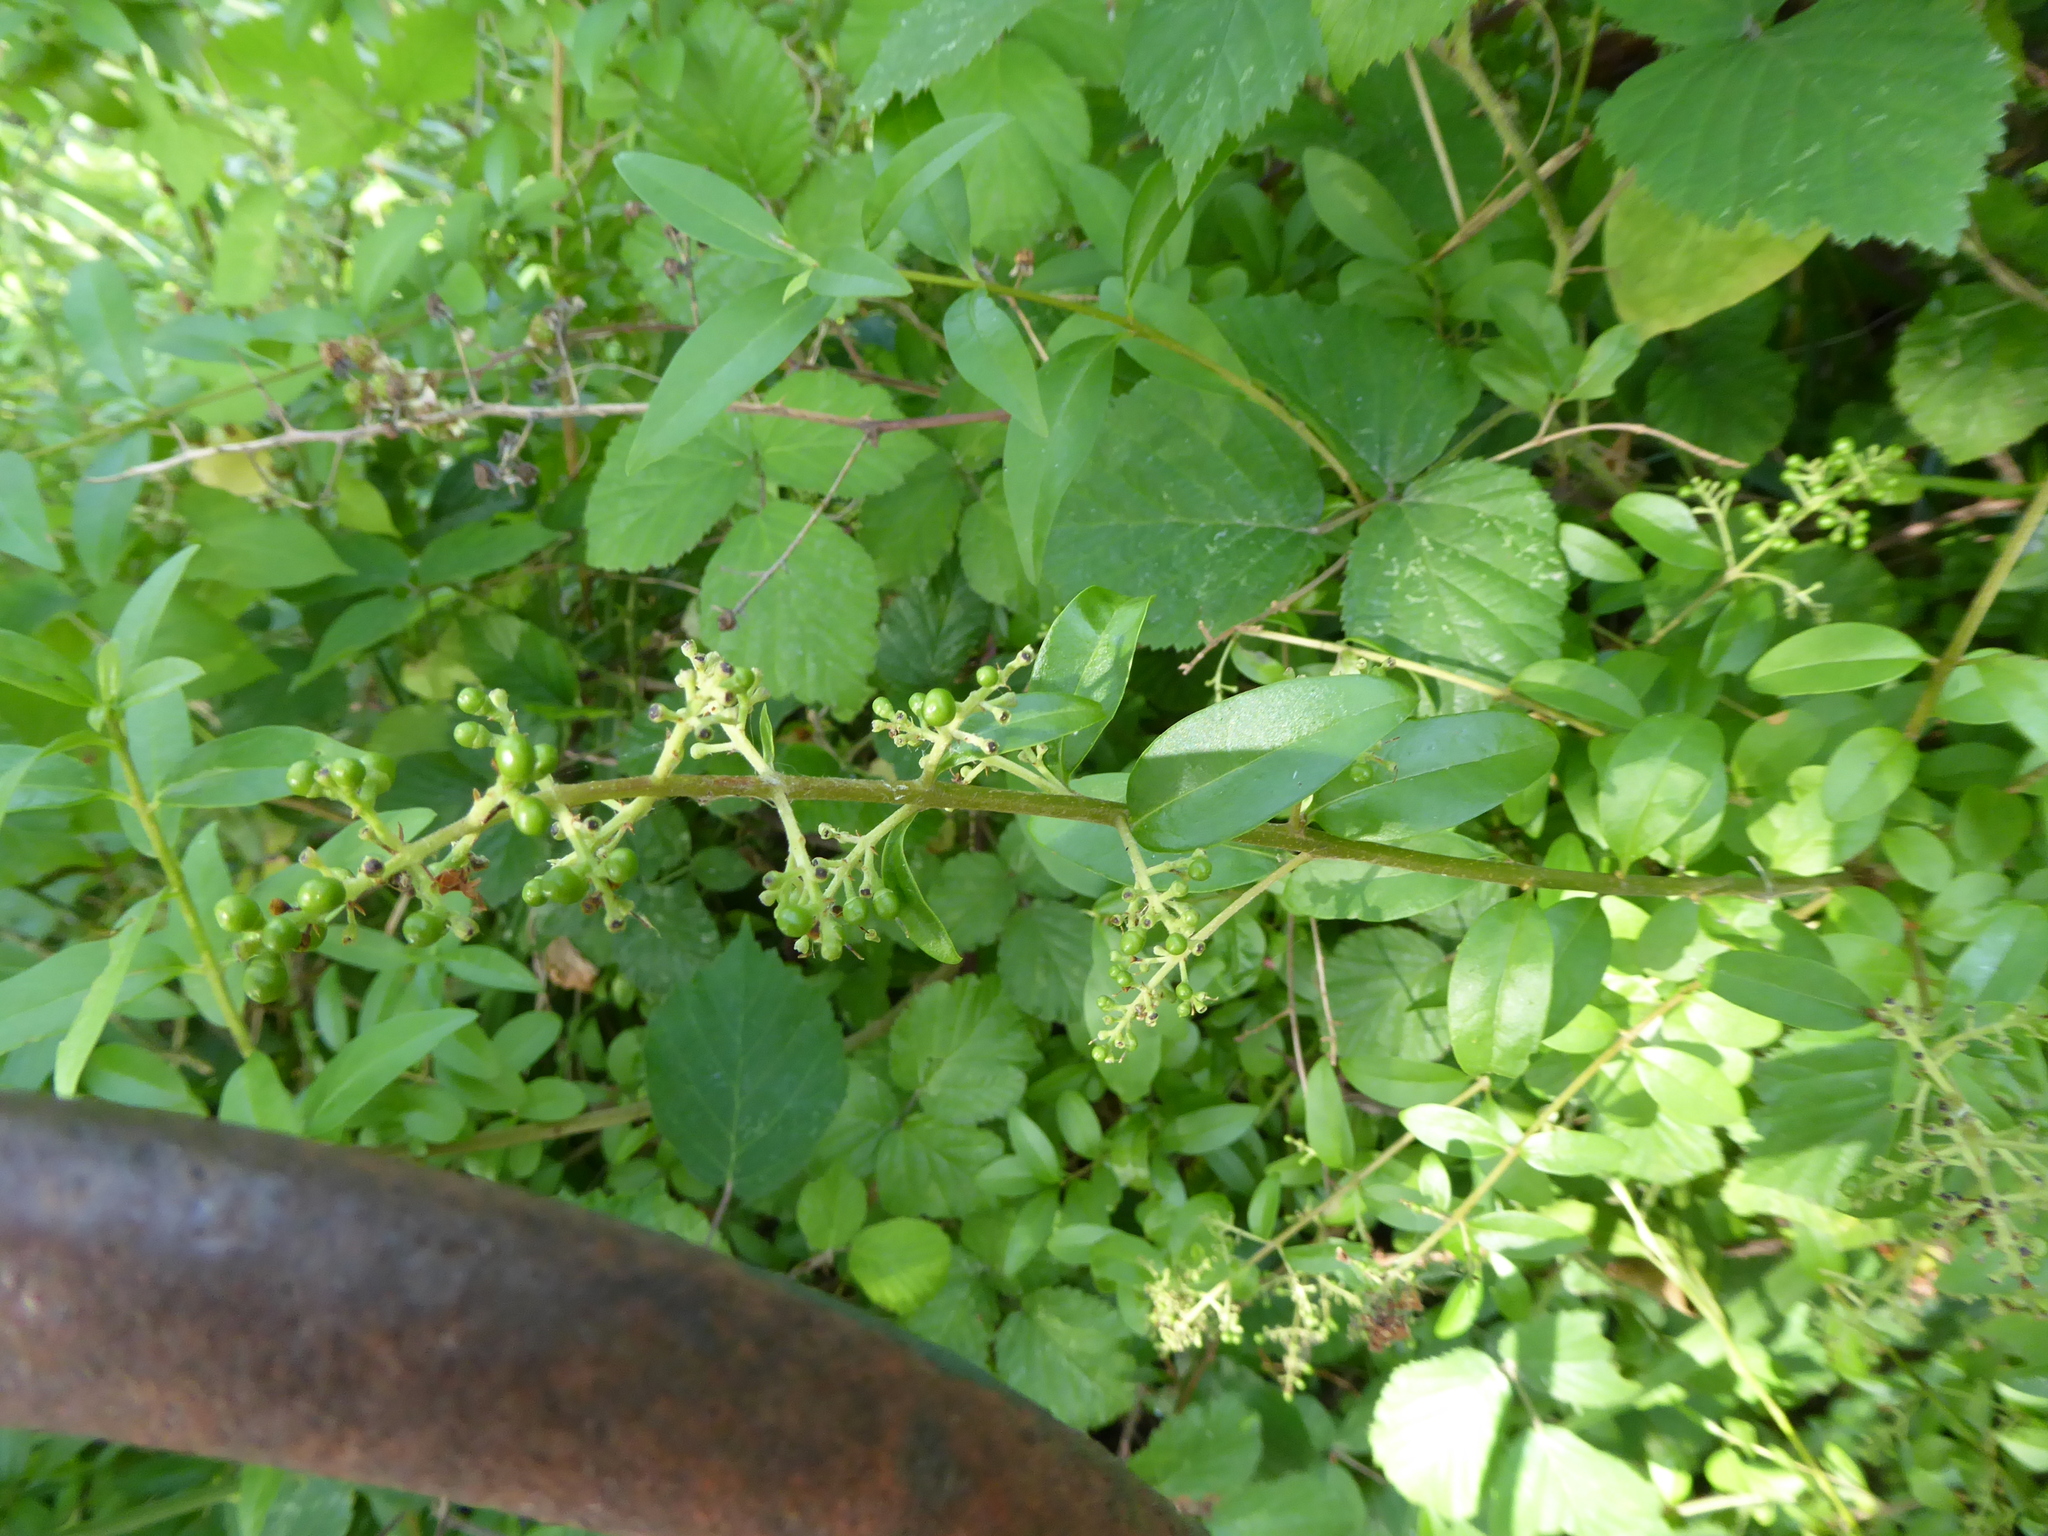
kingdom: Plantae
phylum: Tracheophyta
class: Magnoliopsida
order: Lamiales
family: Oleaceae
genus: Ligustrum
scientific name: Ligustrum vulgare
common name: Wild privet
